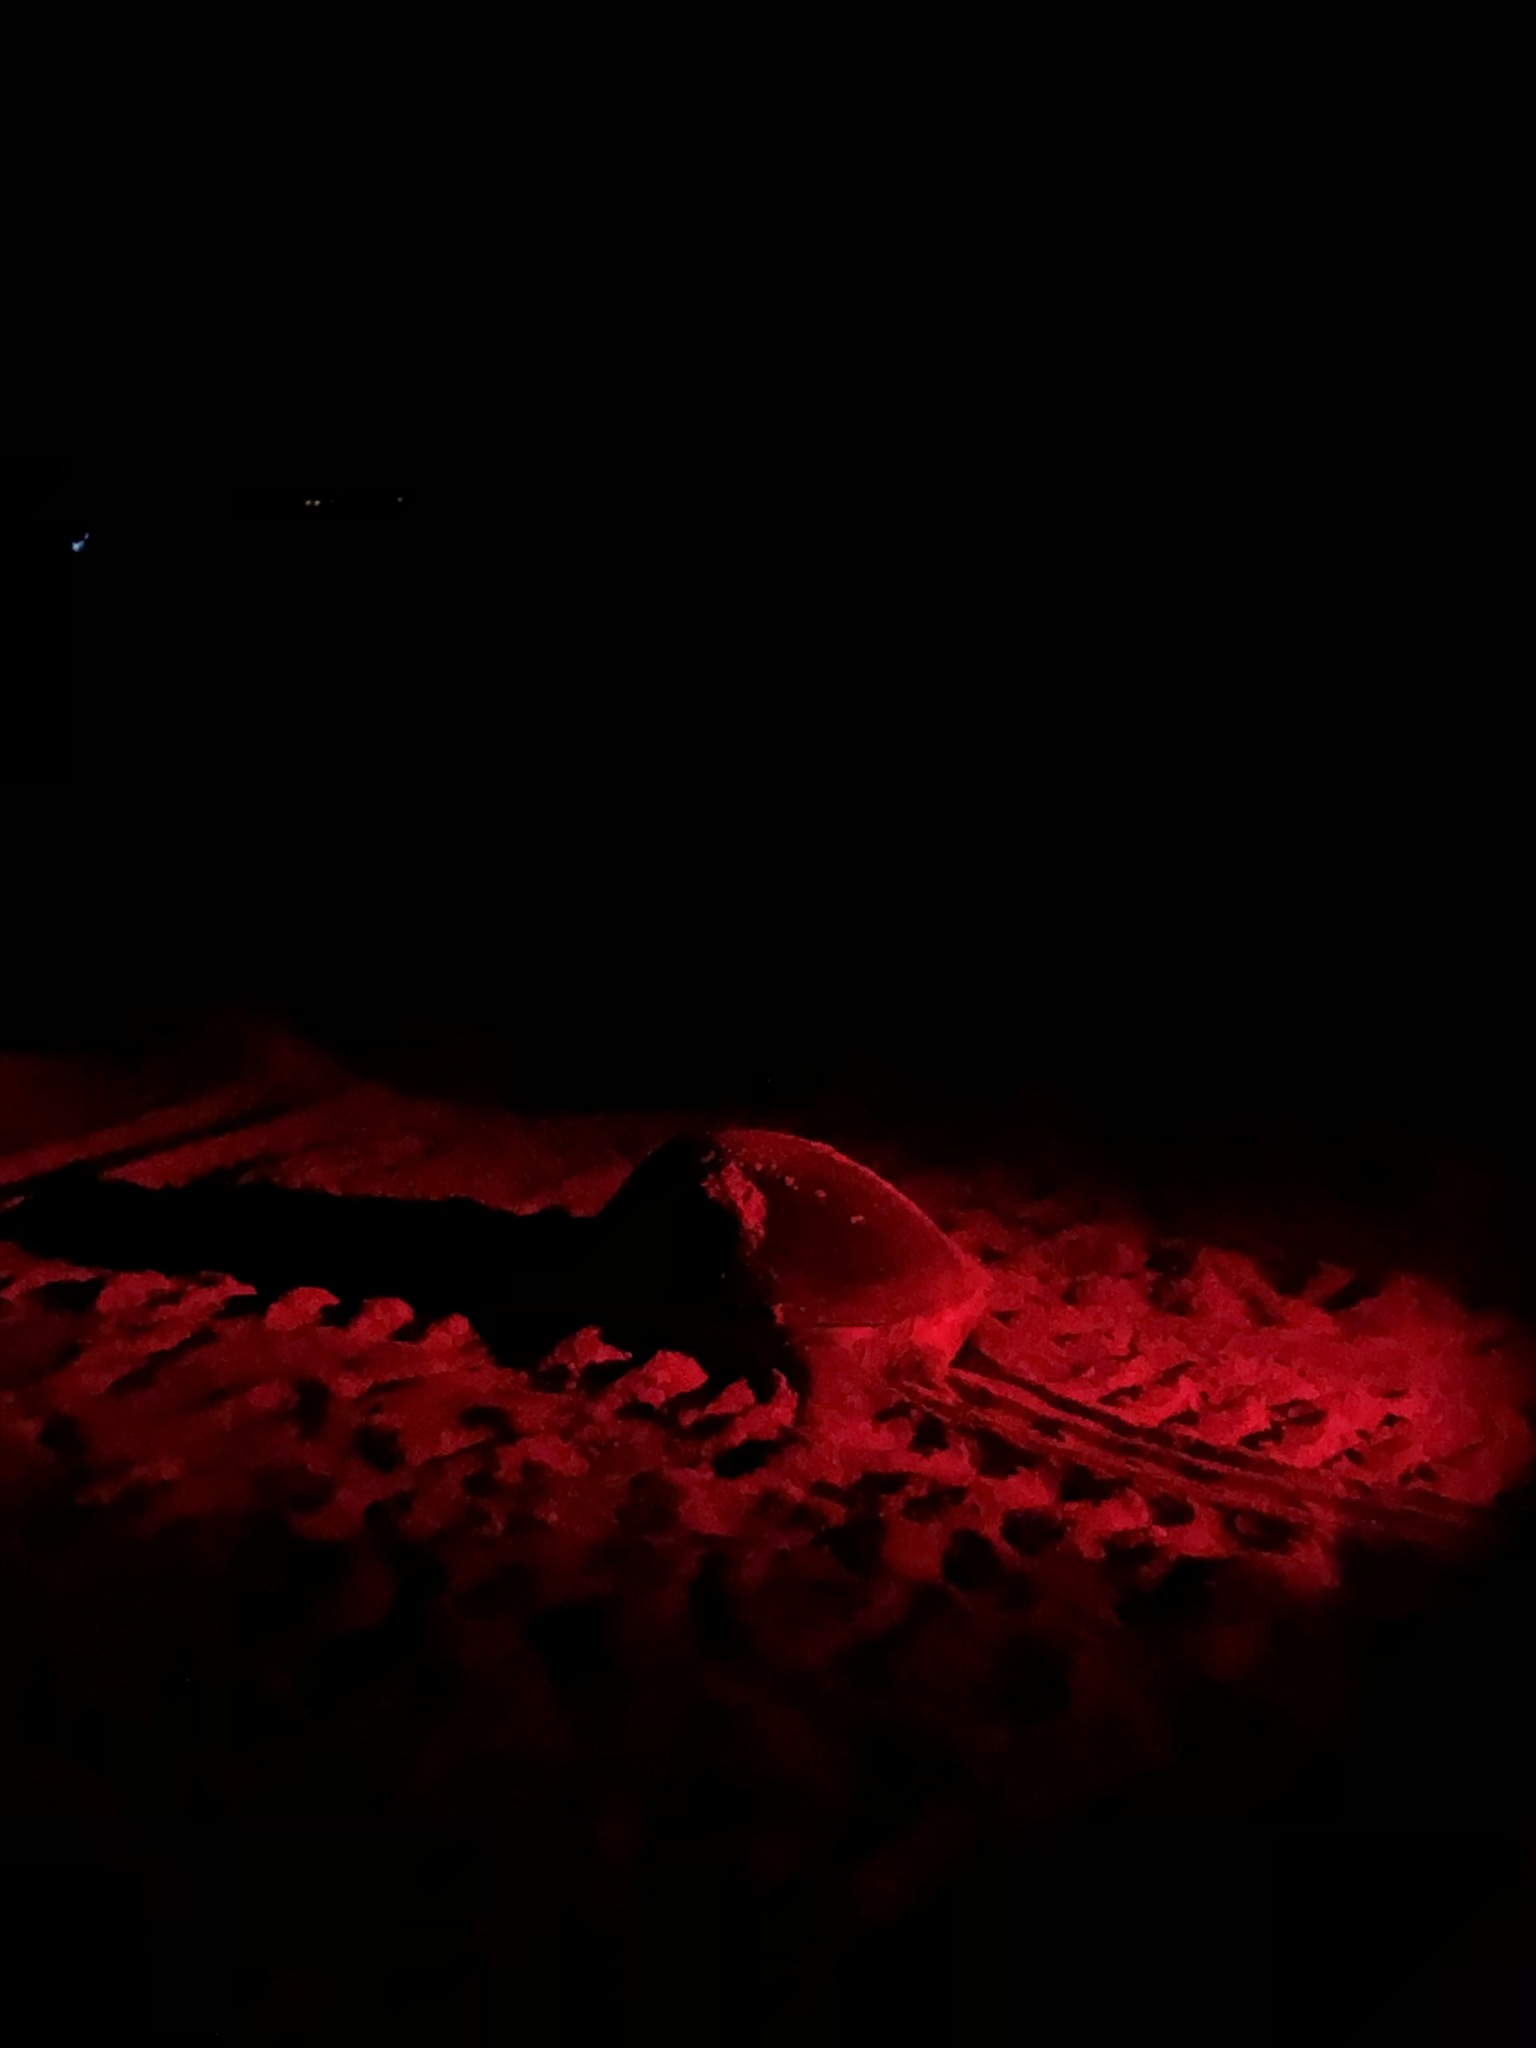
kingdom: Animalia
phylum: Chordata
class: Testudines
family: Cheloniidae
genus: Chelonia
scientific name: Chelonia mydas
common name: Green turtle
